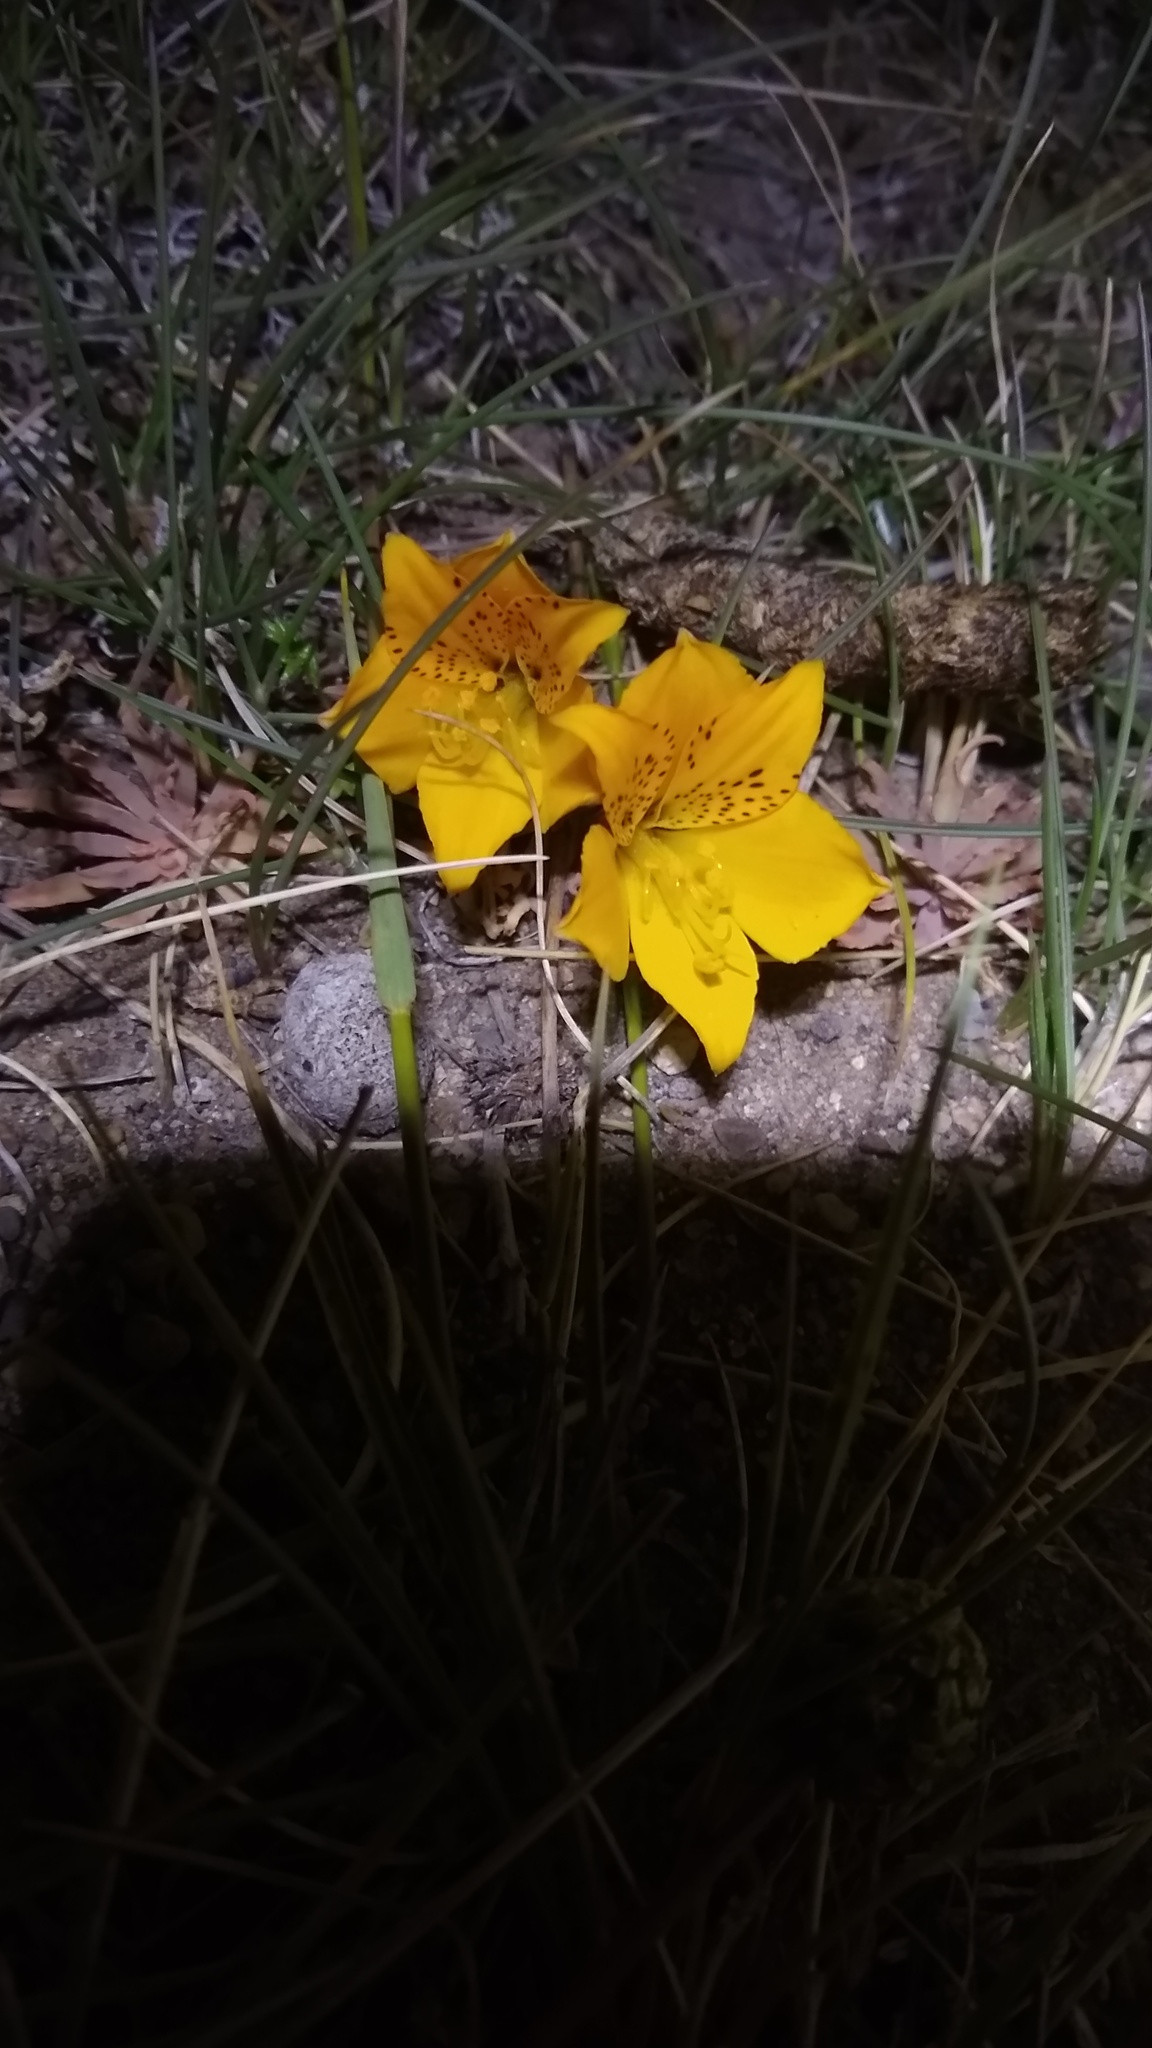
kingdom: Plantae
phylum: Tracheophyta
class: Liliopsida
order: Liliales
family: Alstroemeriaceae
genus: Alstroemeria
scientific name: Alstroemeria patagonica
